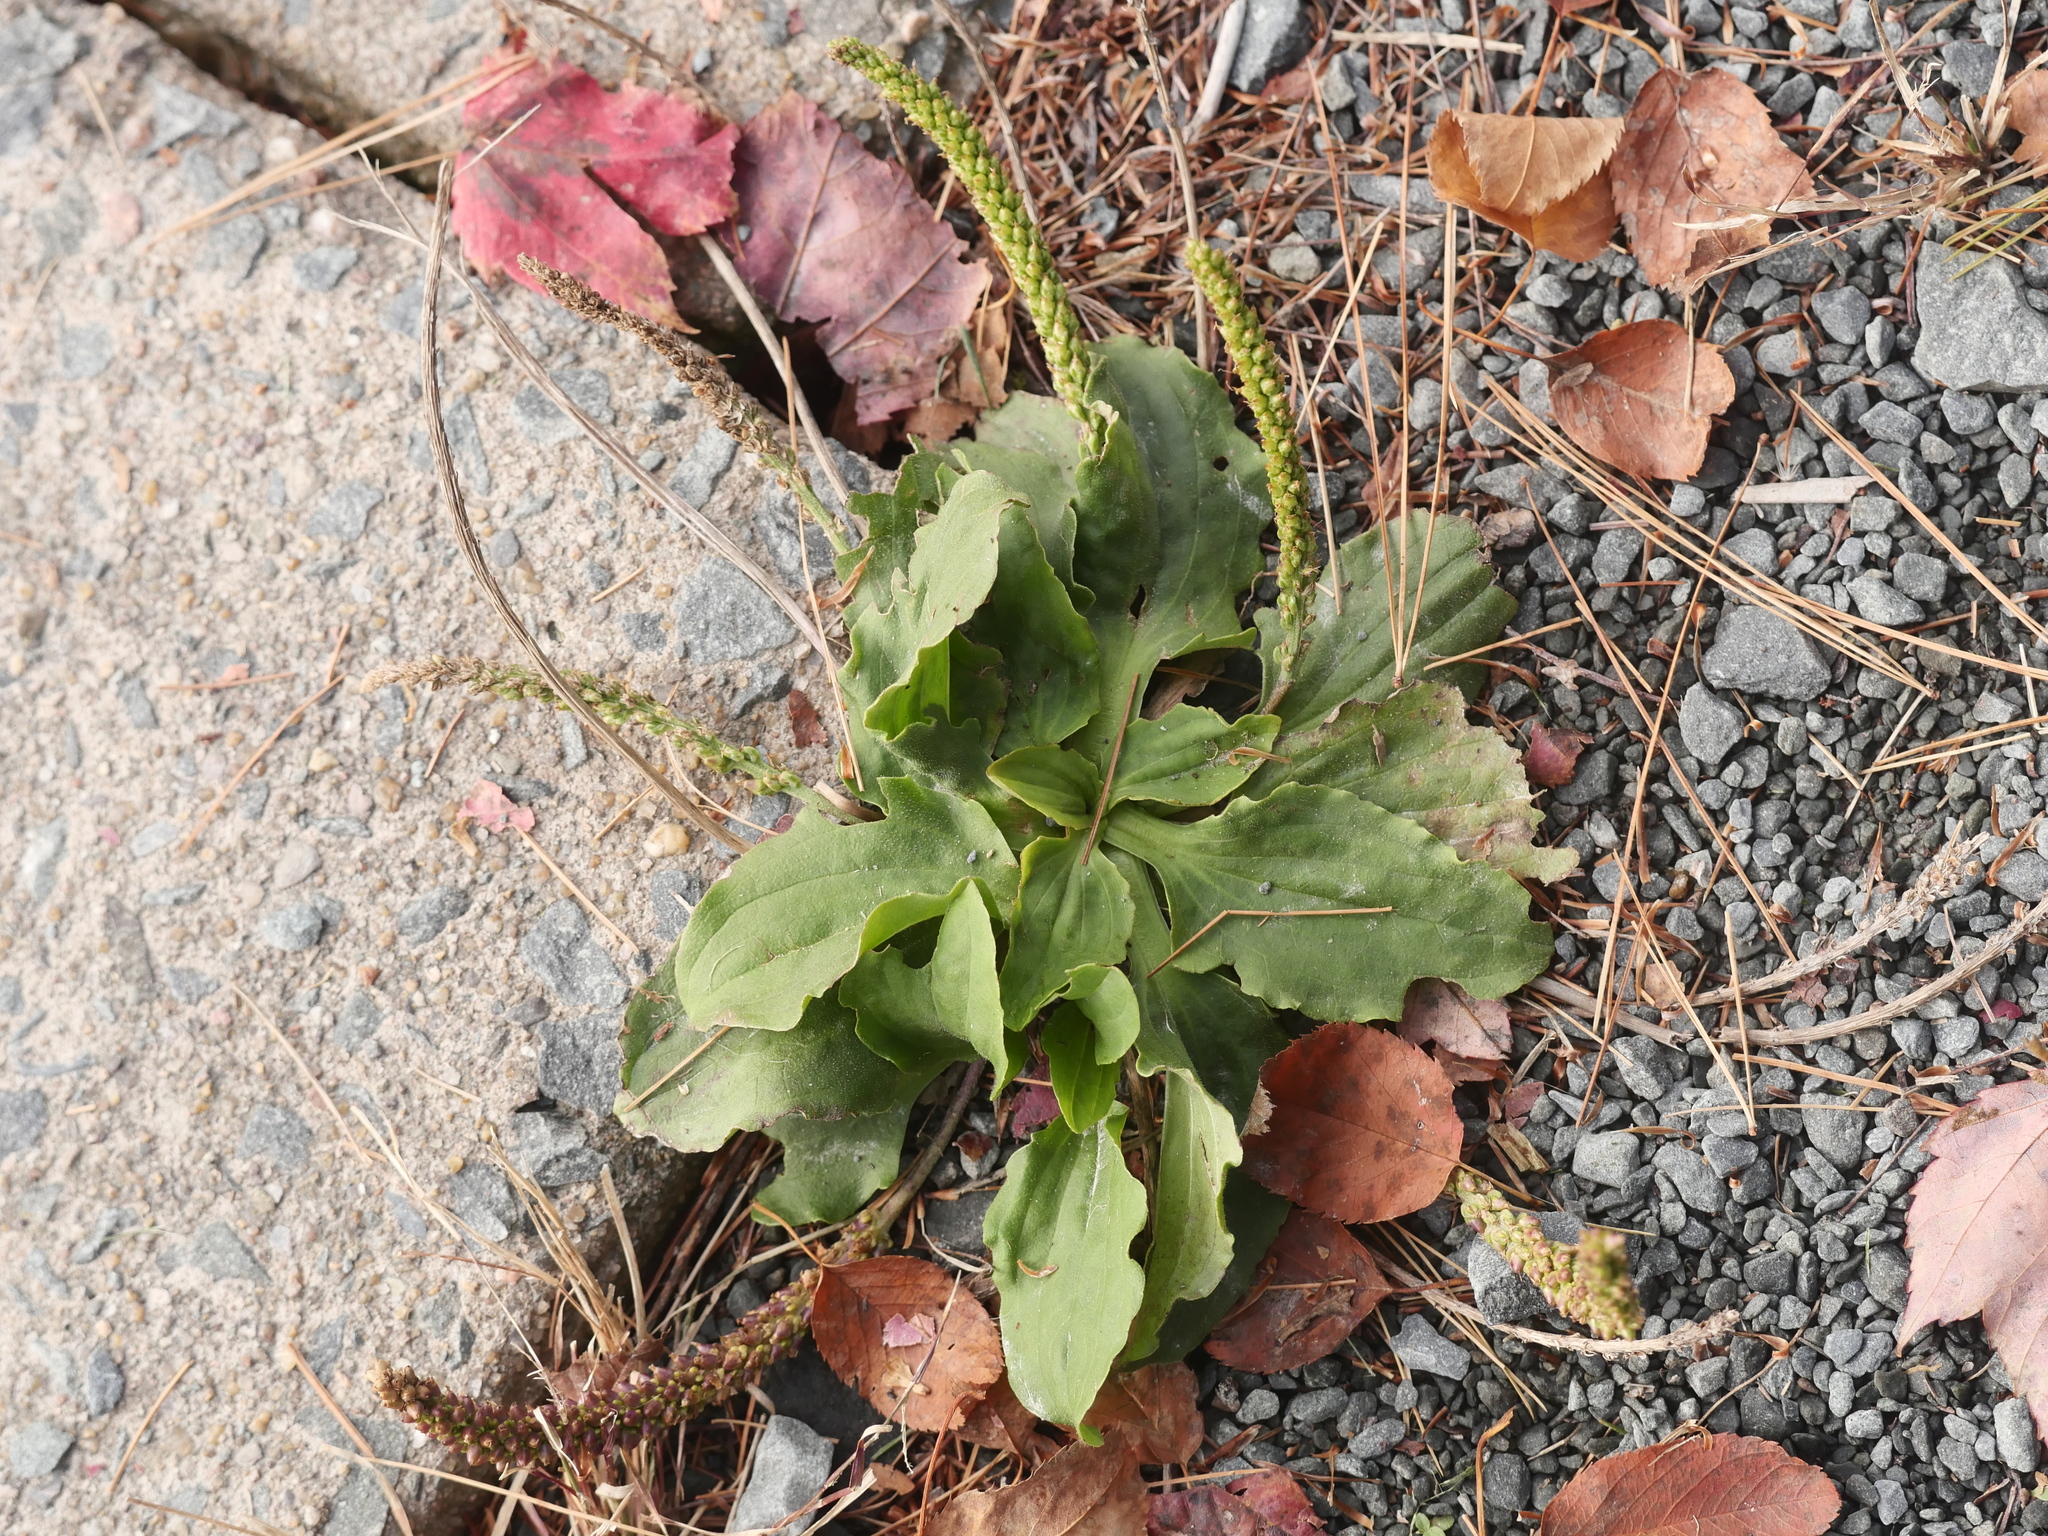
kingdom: Plantae
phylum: Tracheophyta
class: Magnoliopsida
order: Lamiales
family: Plantaginaceae
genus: Plantago
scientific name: Plantago major
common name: Common plantain
